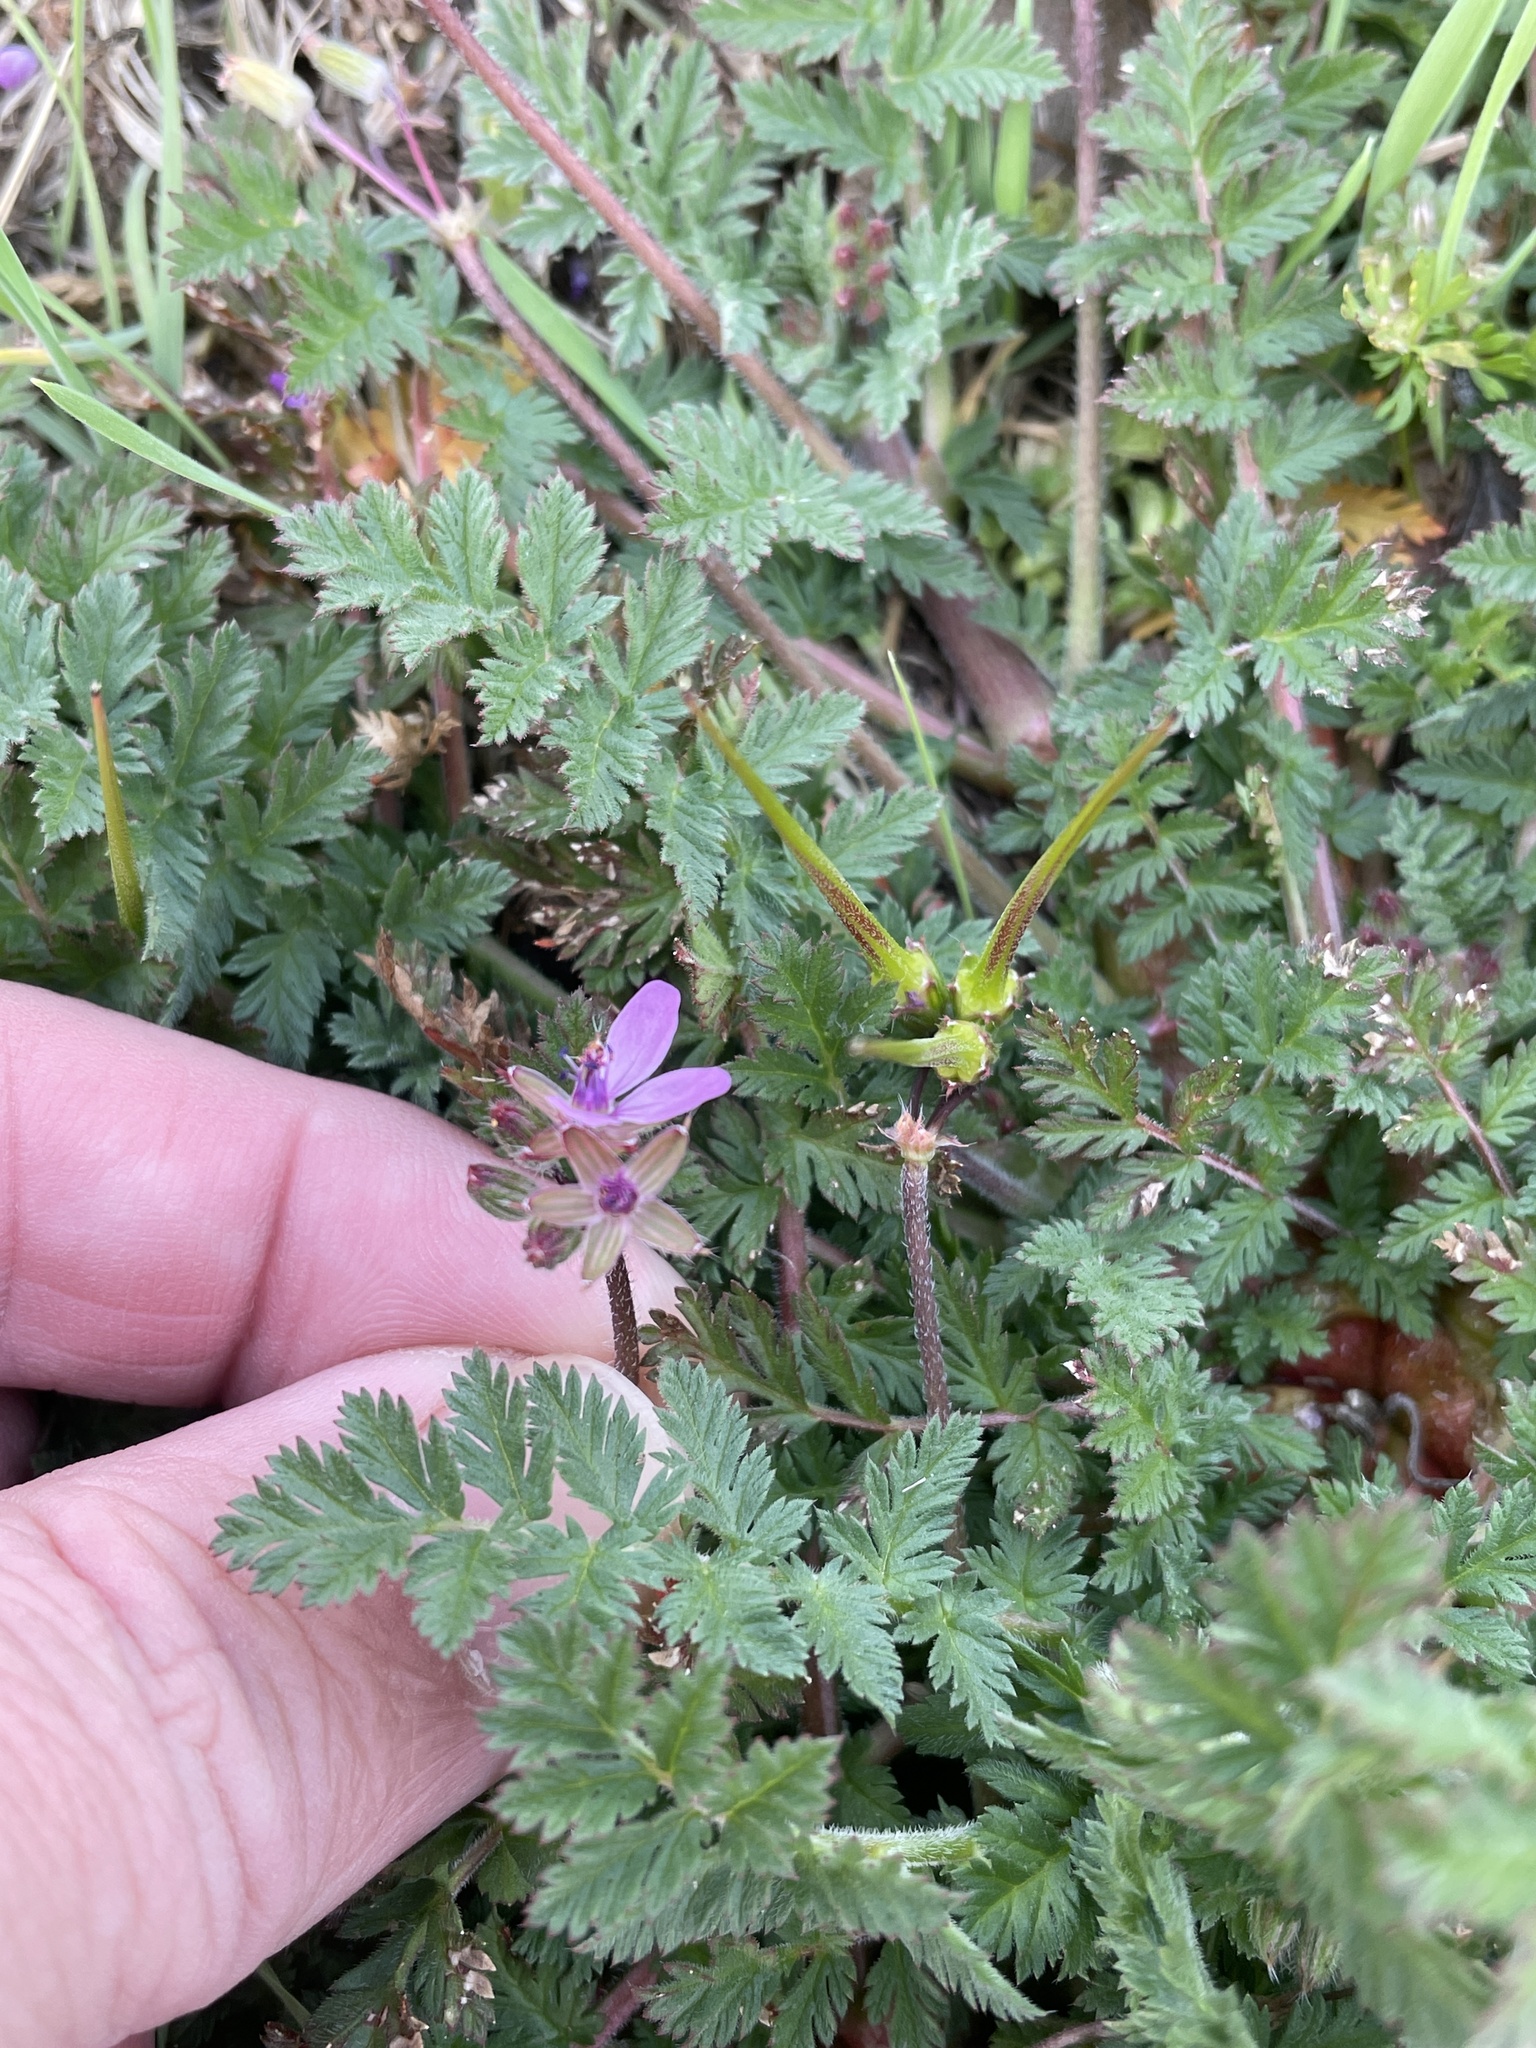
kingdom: Plantae
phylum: Tracheophyta
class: Magnoliopsida
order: Geraniales
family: Geraniaceae
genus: Erodium
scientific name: Erodium cicutarium
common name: Common stork's-bill
